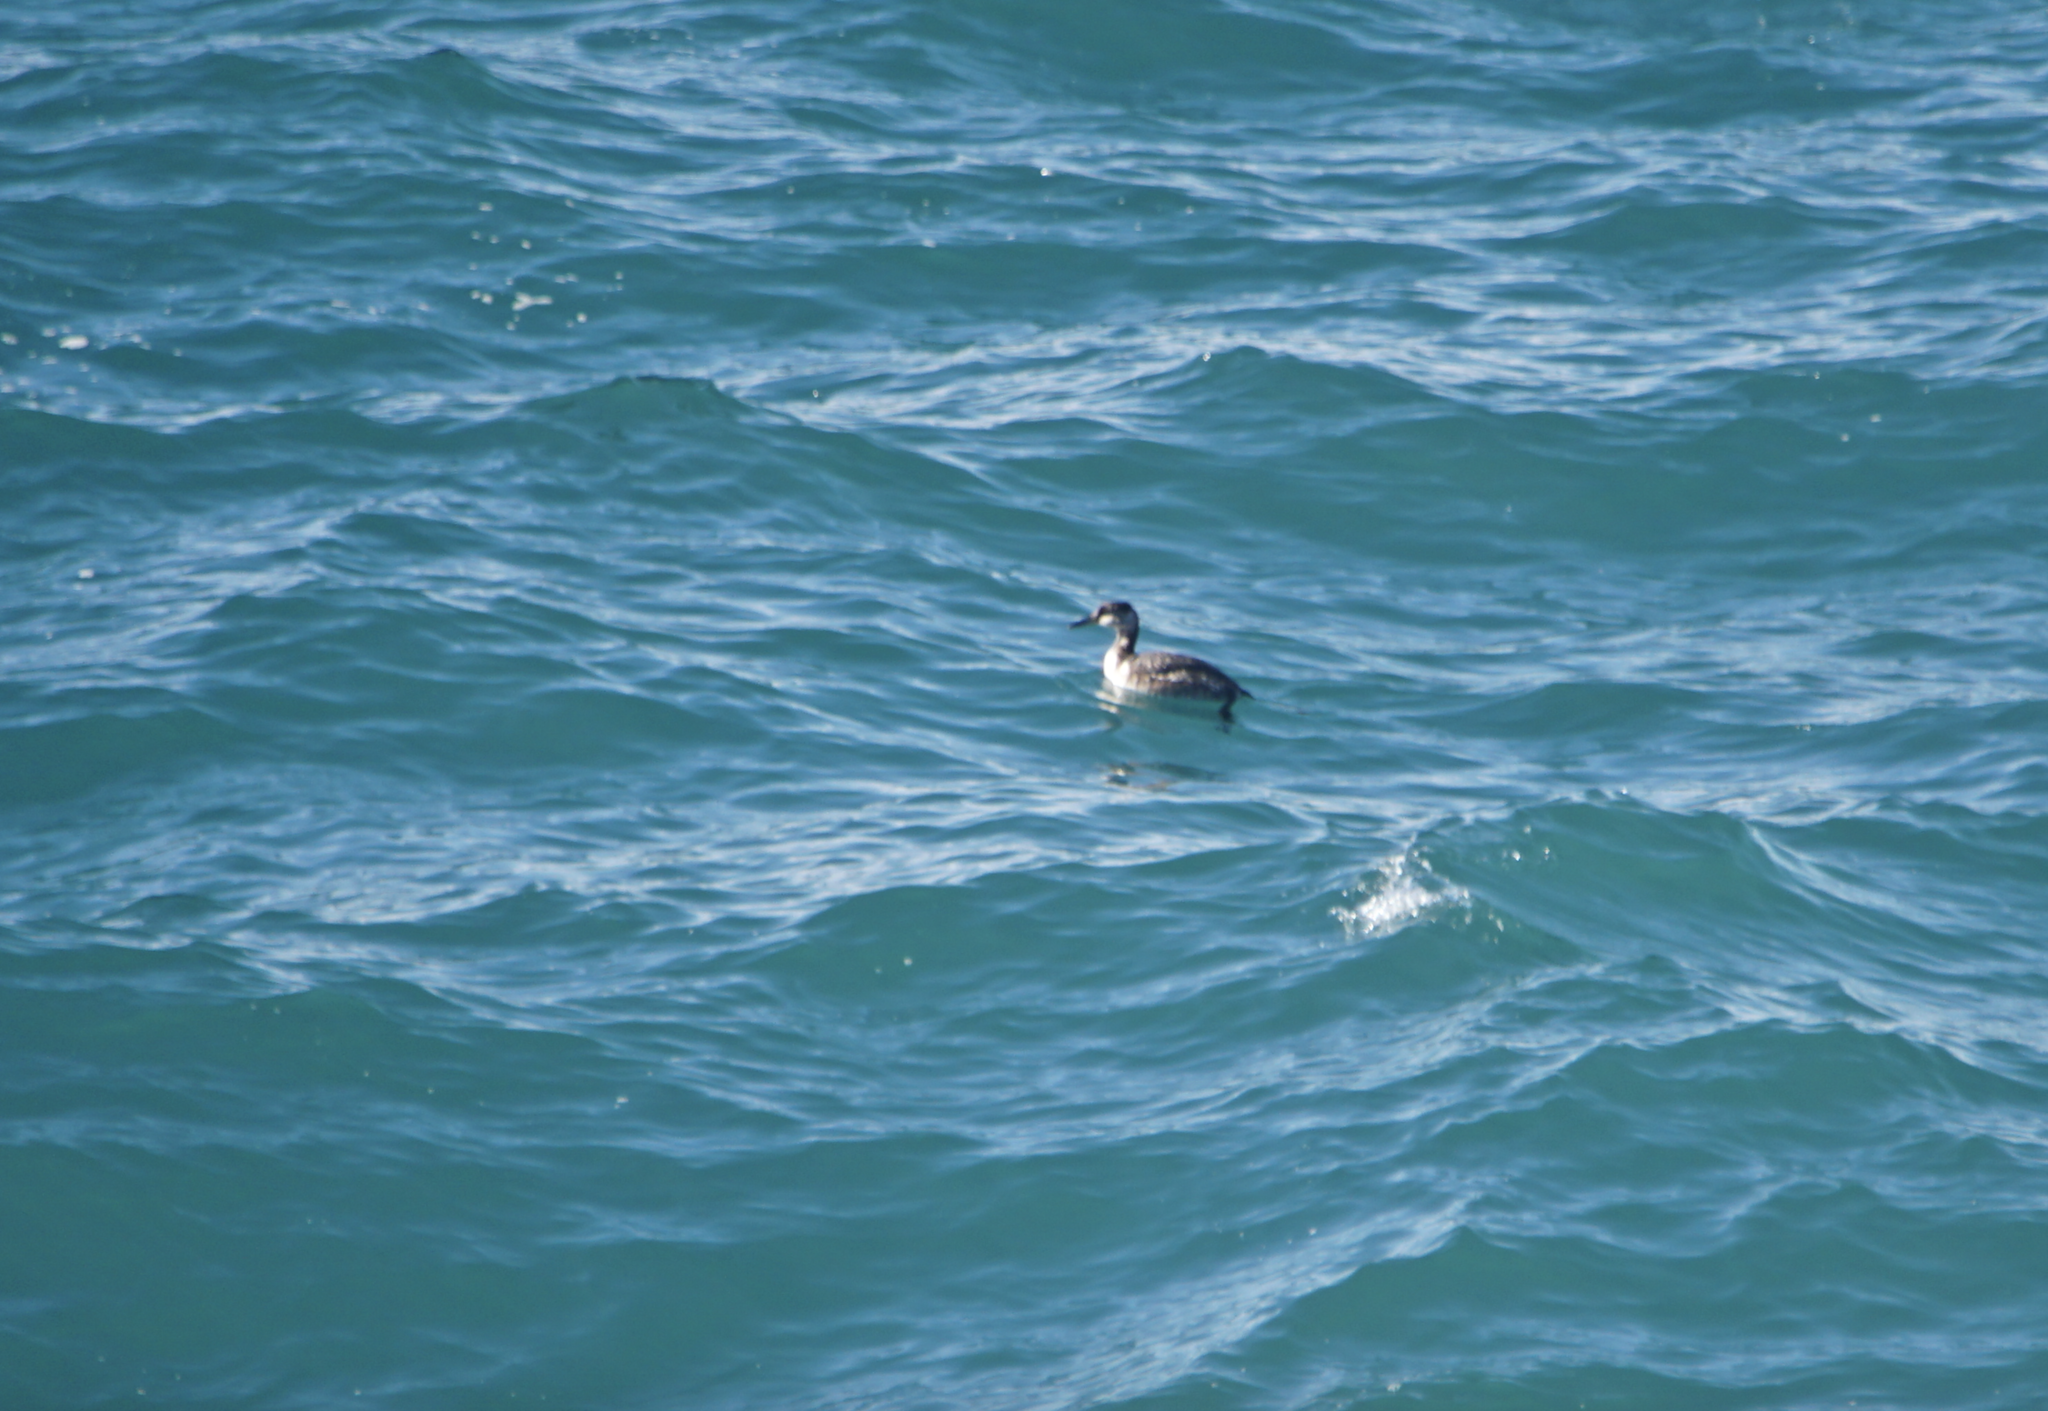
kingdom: Animalia
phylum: Chordata
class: Aves
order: Podicipediformes
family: Podicipedidae
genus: Podiceps
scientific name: Podiceps auritus
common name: Horned grebe
